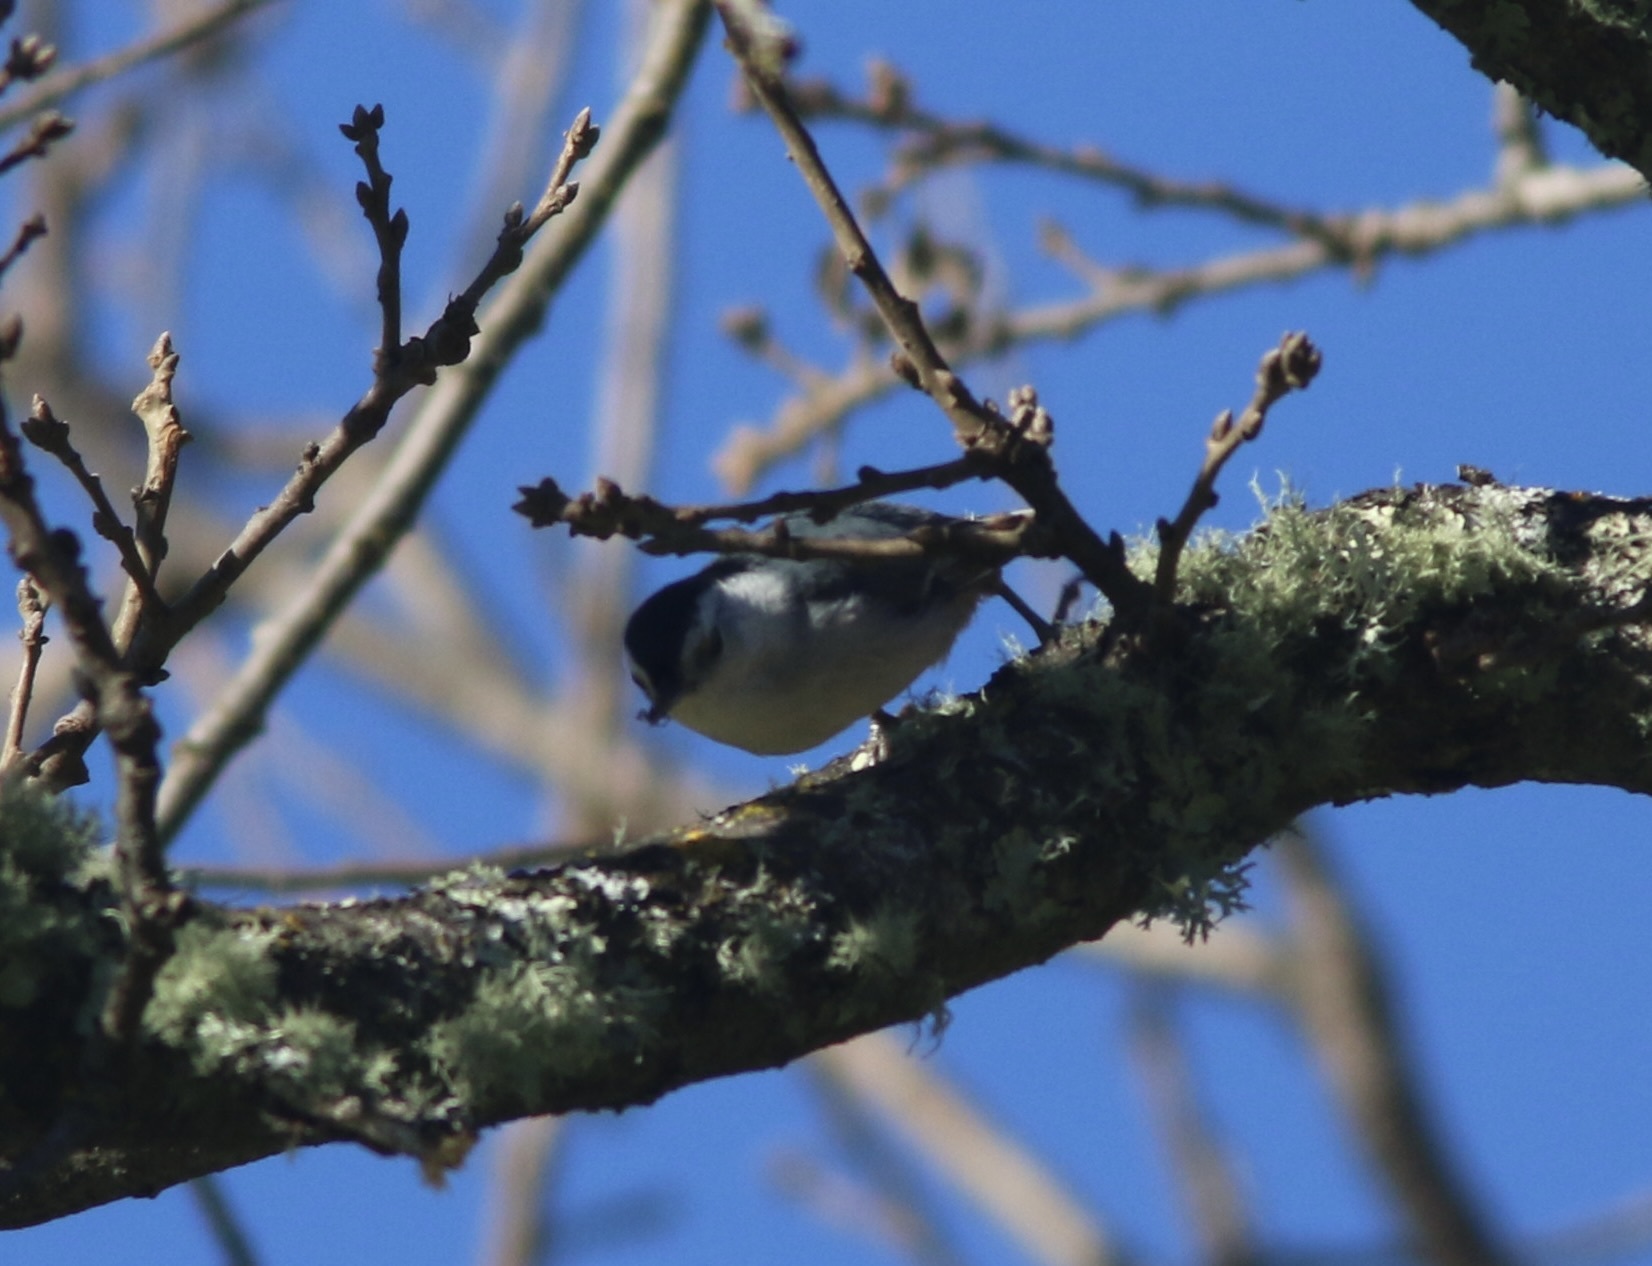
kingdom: Animalia
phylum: Chordata
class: Aves
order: Passeriformes
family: Sittidae
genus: Sitta
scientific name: Sitta carolinensis
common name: White-breasted nuthatch
